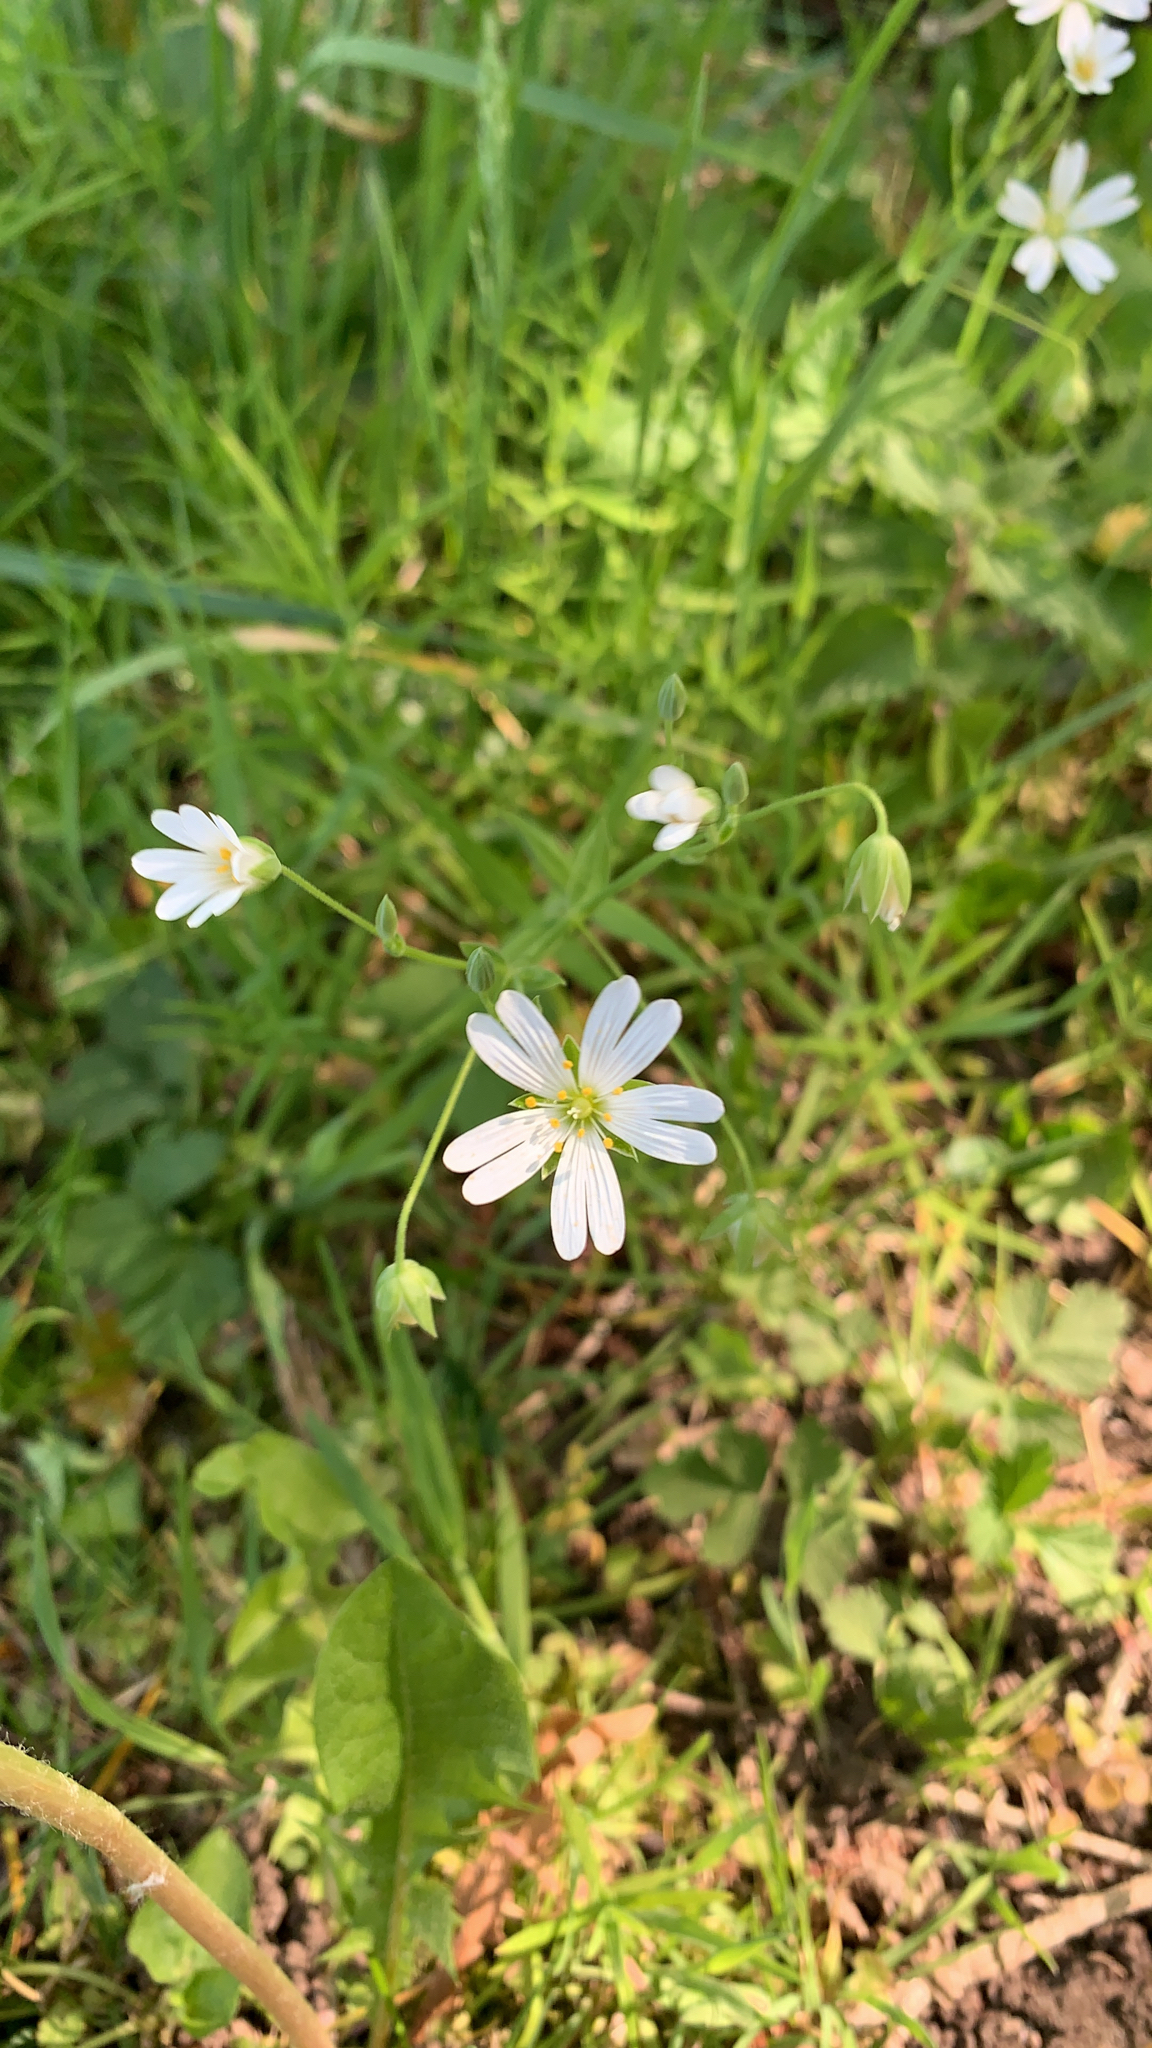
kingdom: Plantae
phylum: Tracheophyta
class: Magnoliopsida
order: Caryophyllales
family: Caryophyllaceae
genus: Rabelera
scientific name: Rabelera holostea
